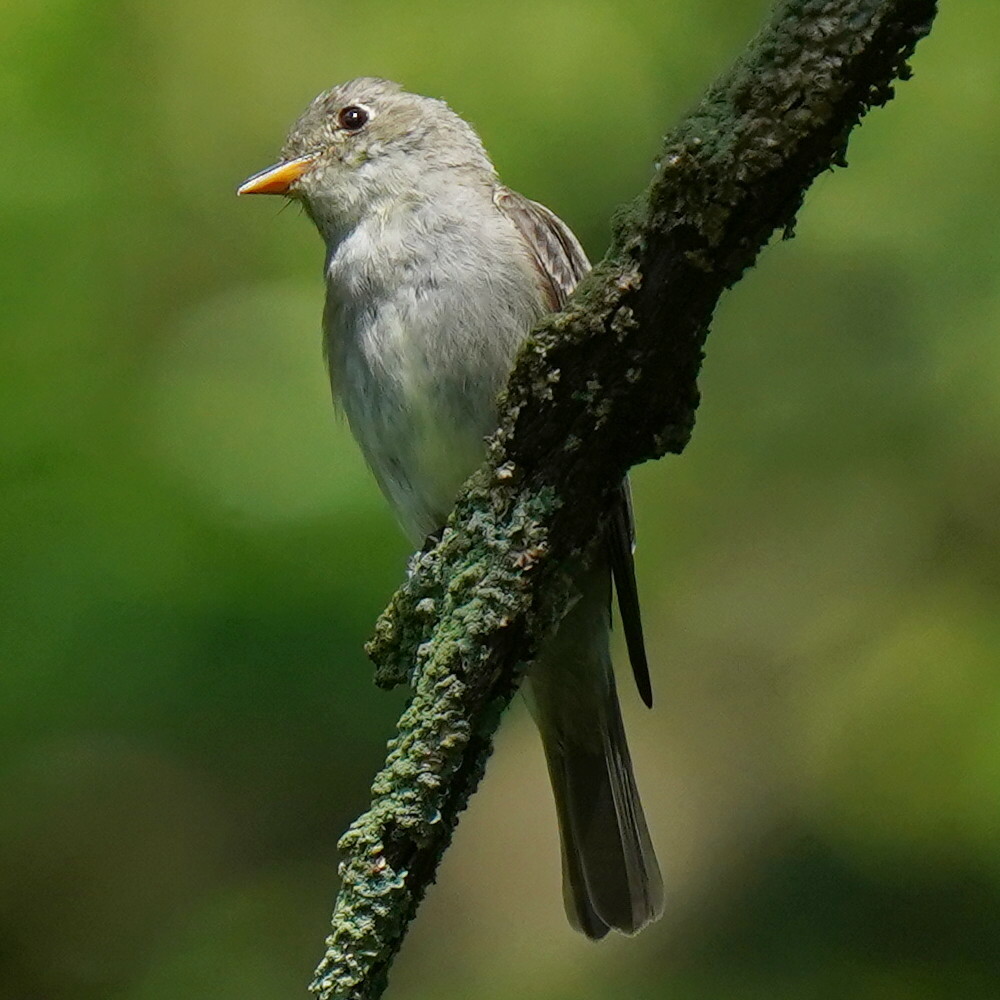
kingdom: Animalia
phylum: Chordata
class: Aves
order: Passeriformes
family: Tyrannidae
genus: Contopus
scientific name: Contopus virens
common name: Eastern wood-pewee
